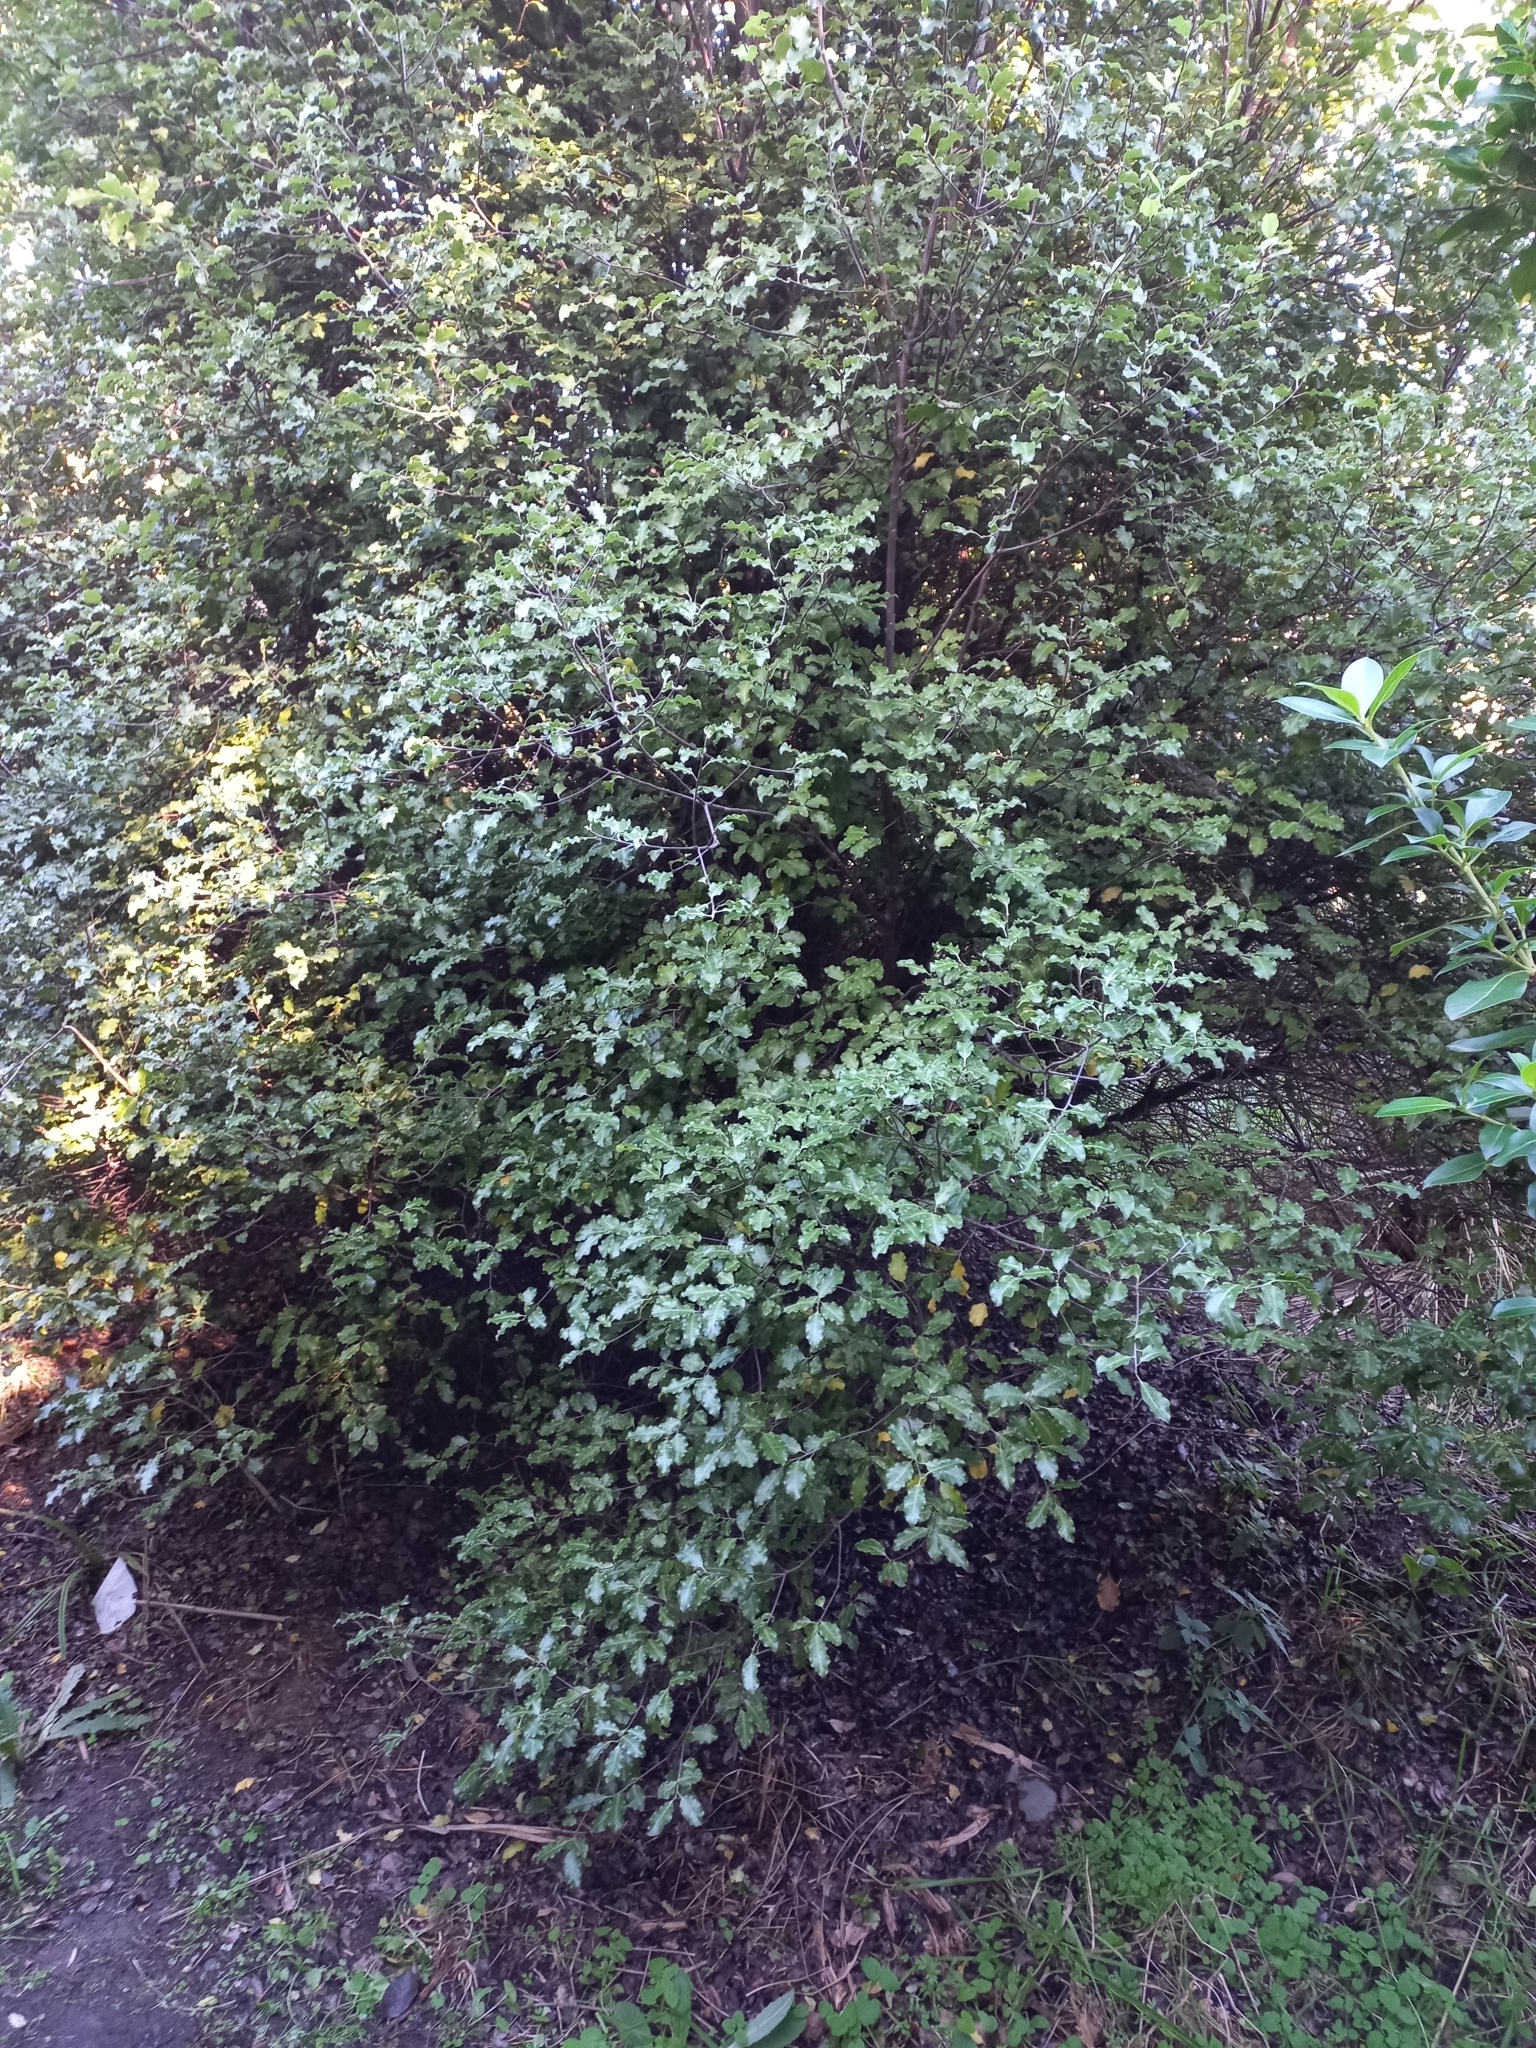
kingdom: Plantae
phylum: Tracheophyta
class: Magnoliopsida
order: Apiales
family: Pittosporaceae
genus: Pittosporum
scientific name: Pittosporum tenuifolium
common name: Kohuhu
